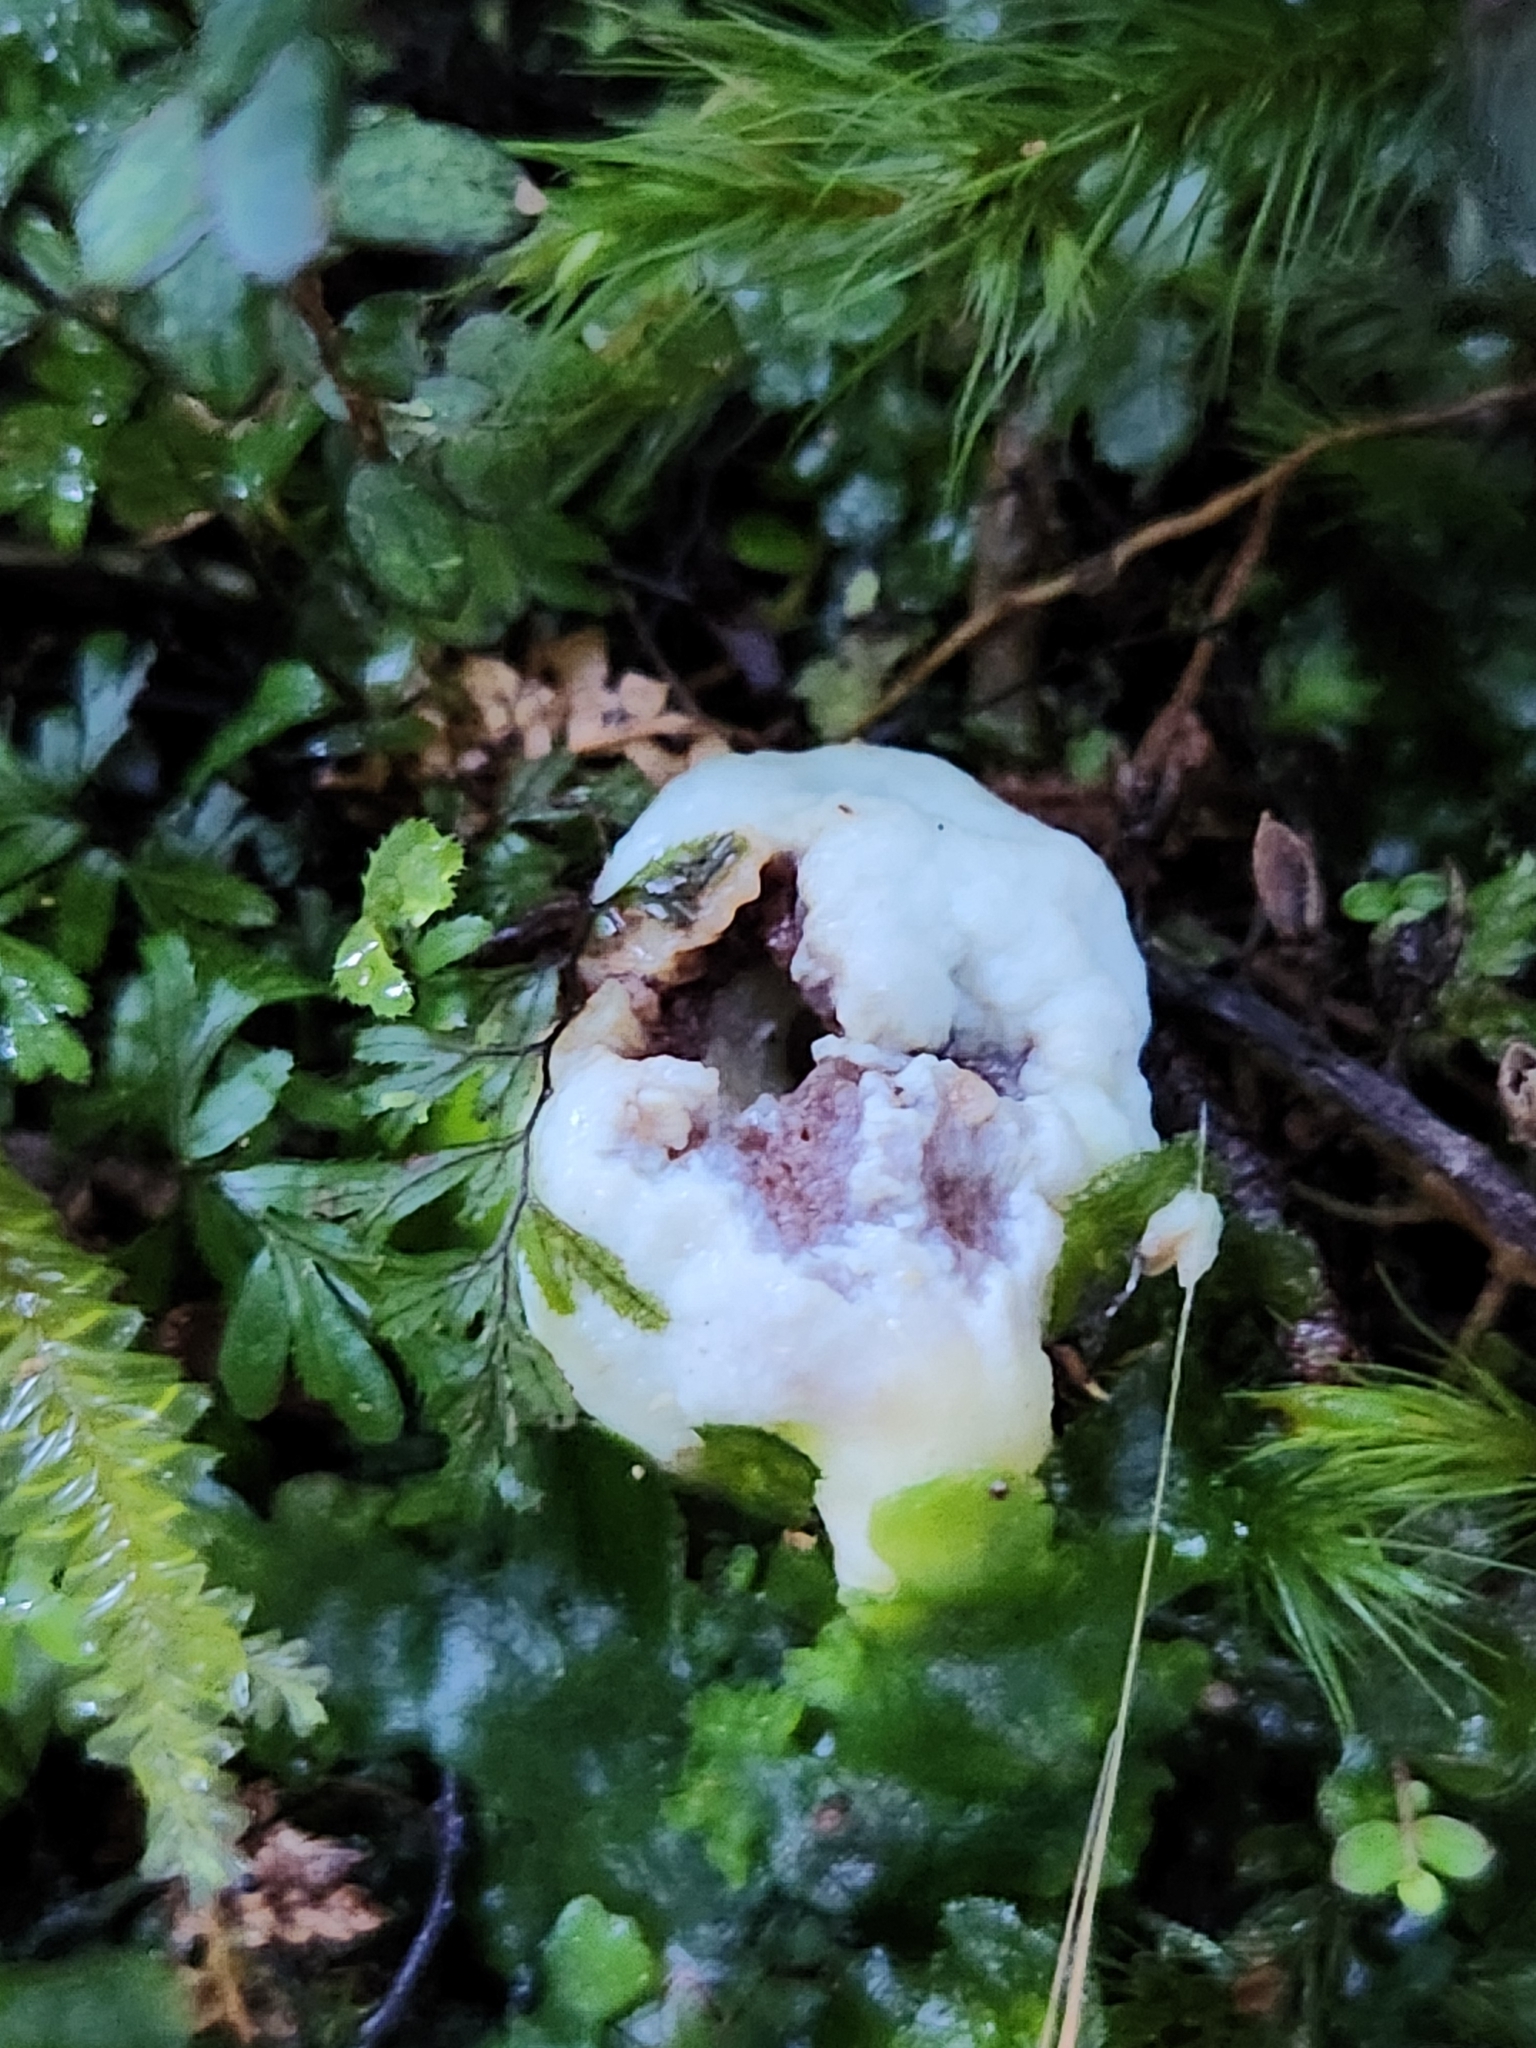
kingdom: Fungi
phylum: Basidiomycota
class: Agaricomycetes
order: Agaricales
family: Agaricaceae
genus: Clavogaster
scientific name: Clavogaster virescens
